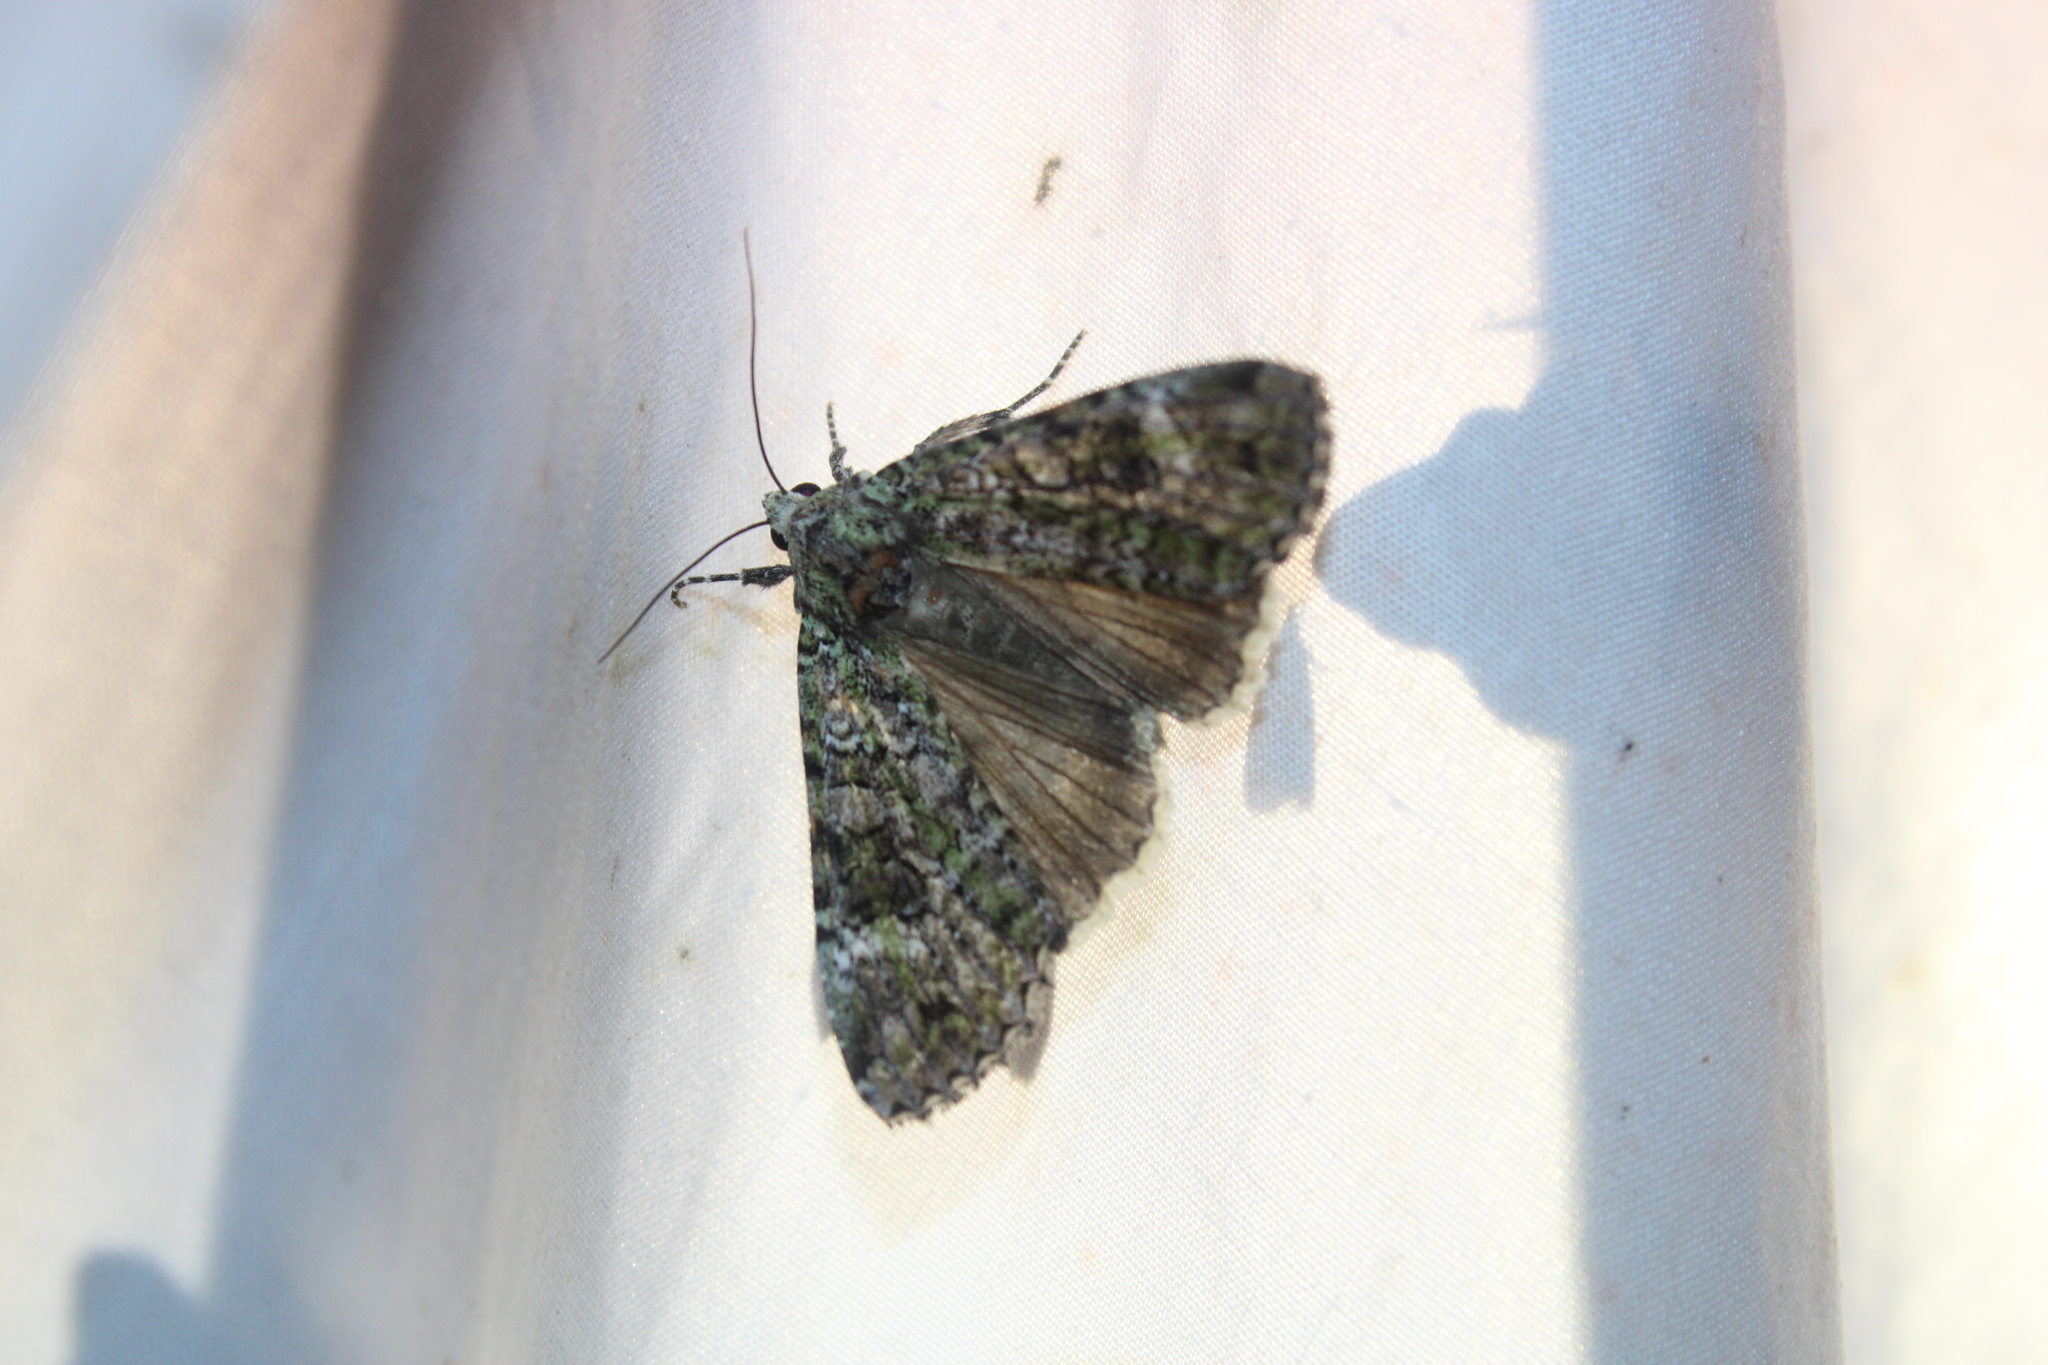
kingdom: Animalia
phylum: Arthropoda
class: Insecta
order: Lepidoptera
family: Noctuidae
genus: Anaplectoides
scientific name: Anaplectoides prasina
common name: Green arches
